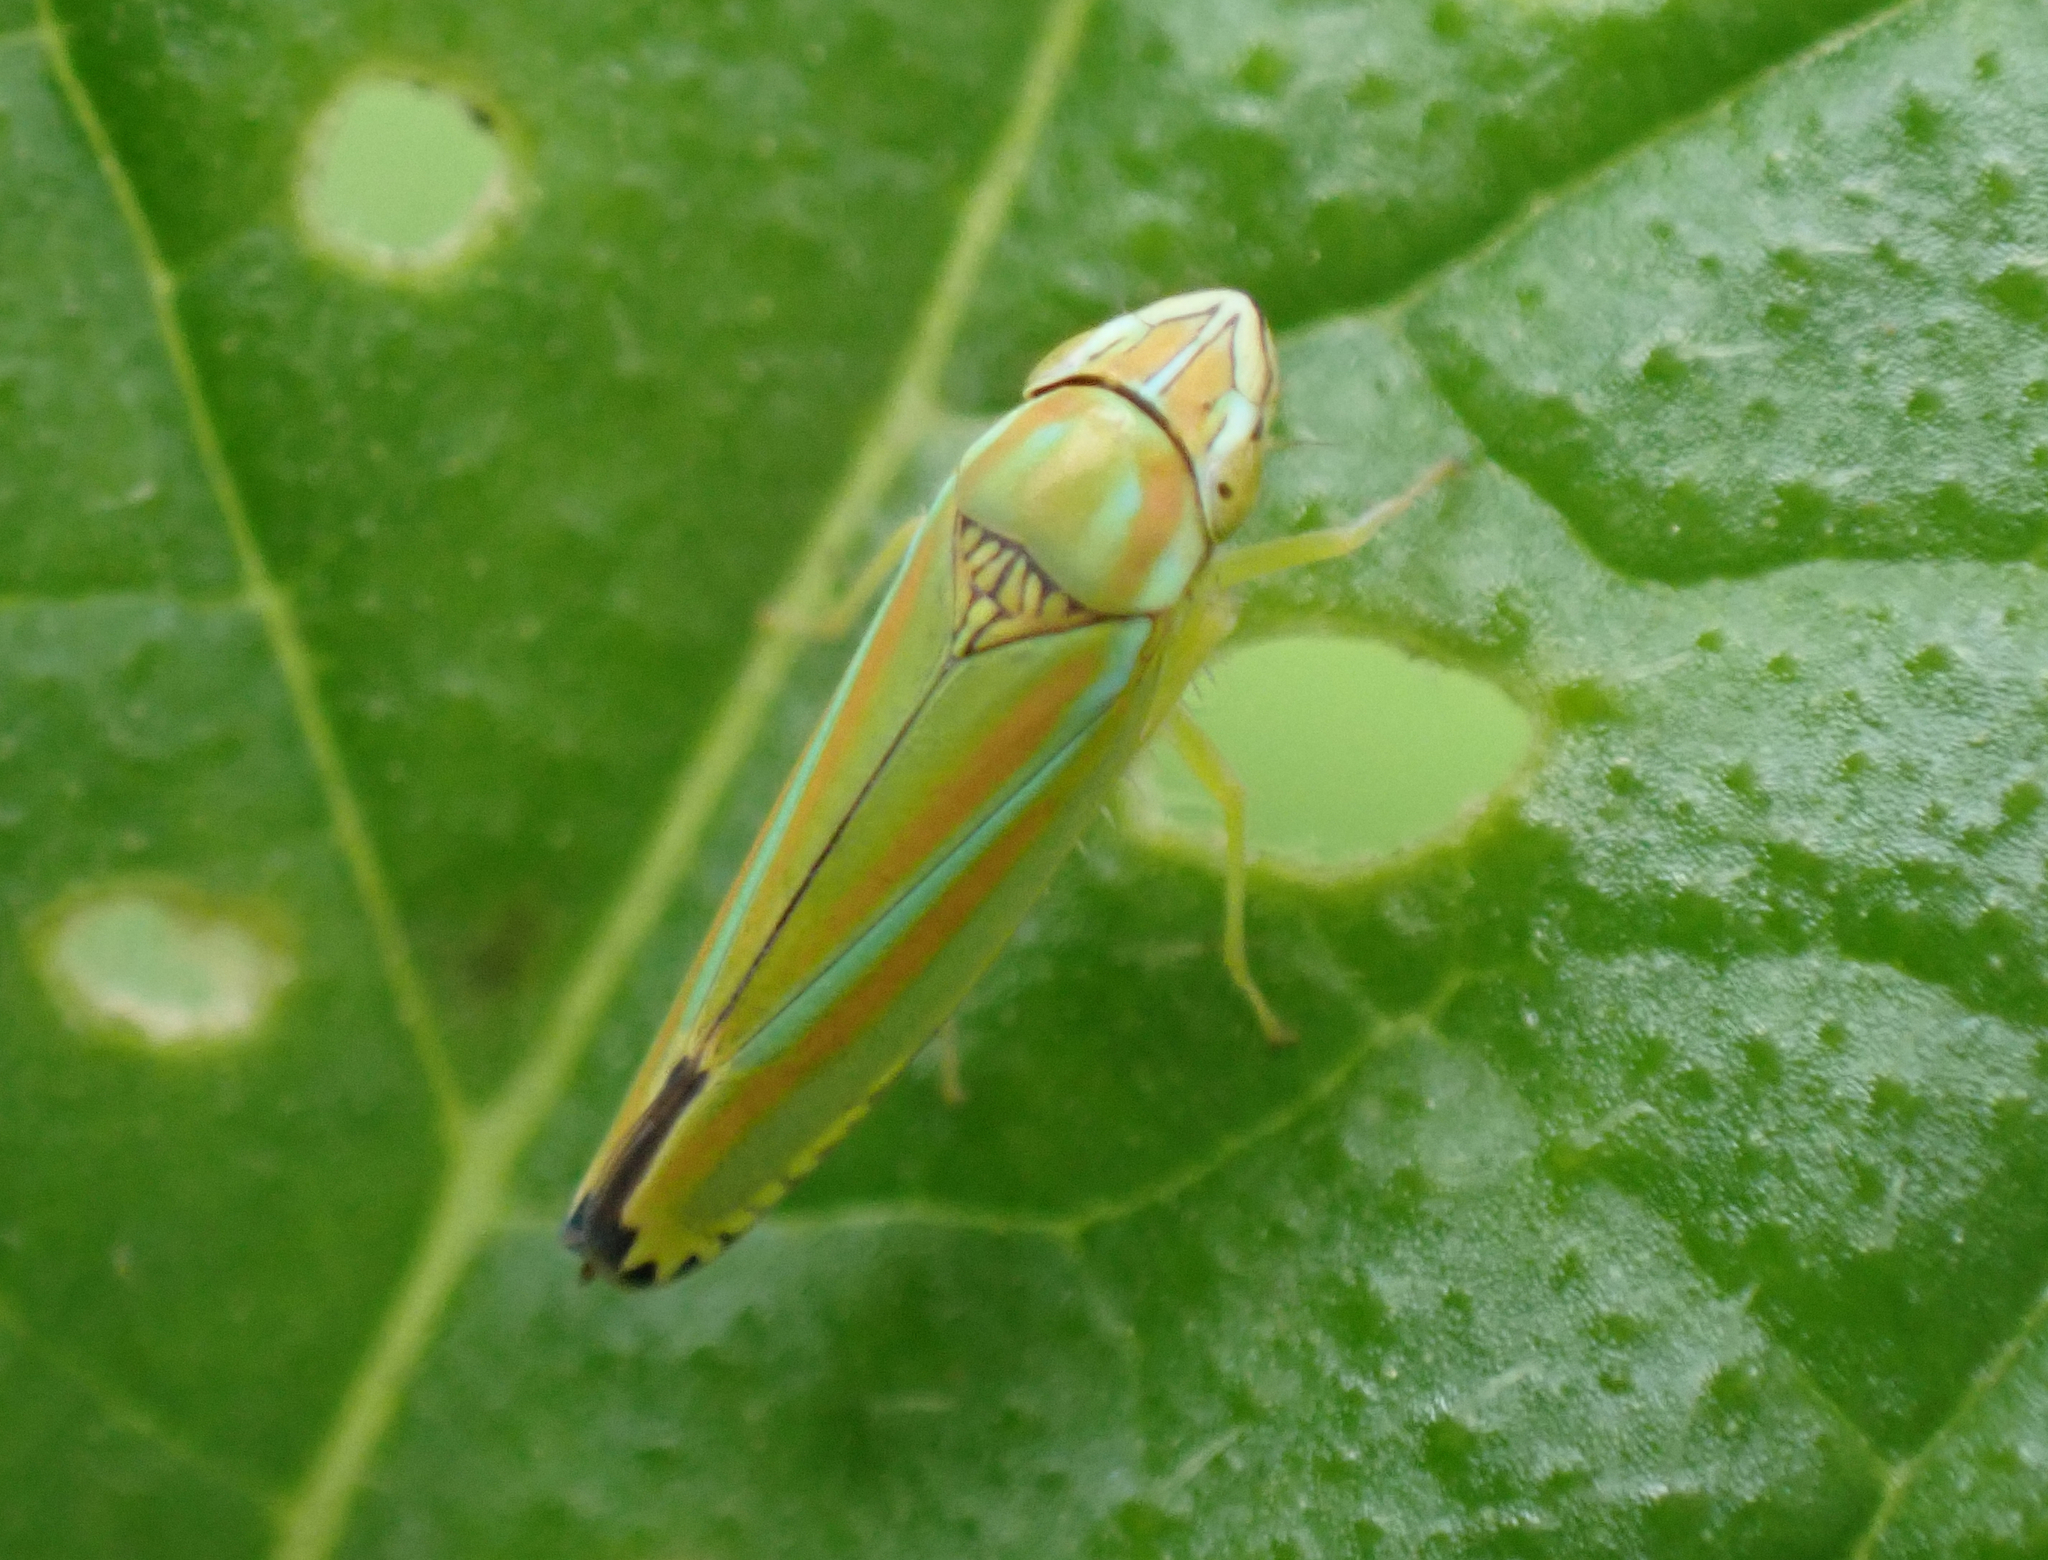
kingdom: Animalia
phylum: Arthropoda
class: Insecta
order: Hemiptera
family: Cicadellidae
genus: Graphocephala
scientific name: Graphocephala versuta
